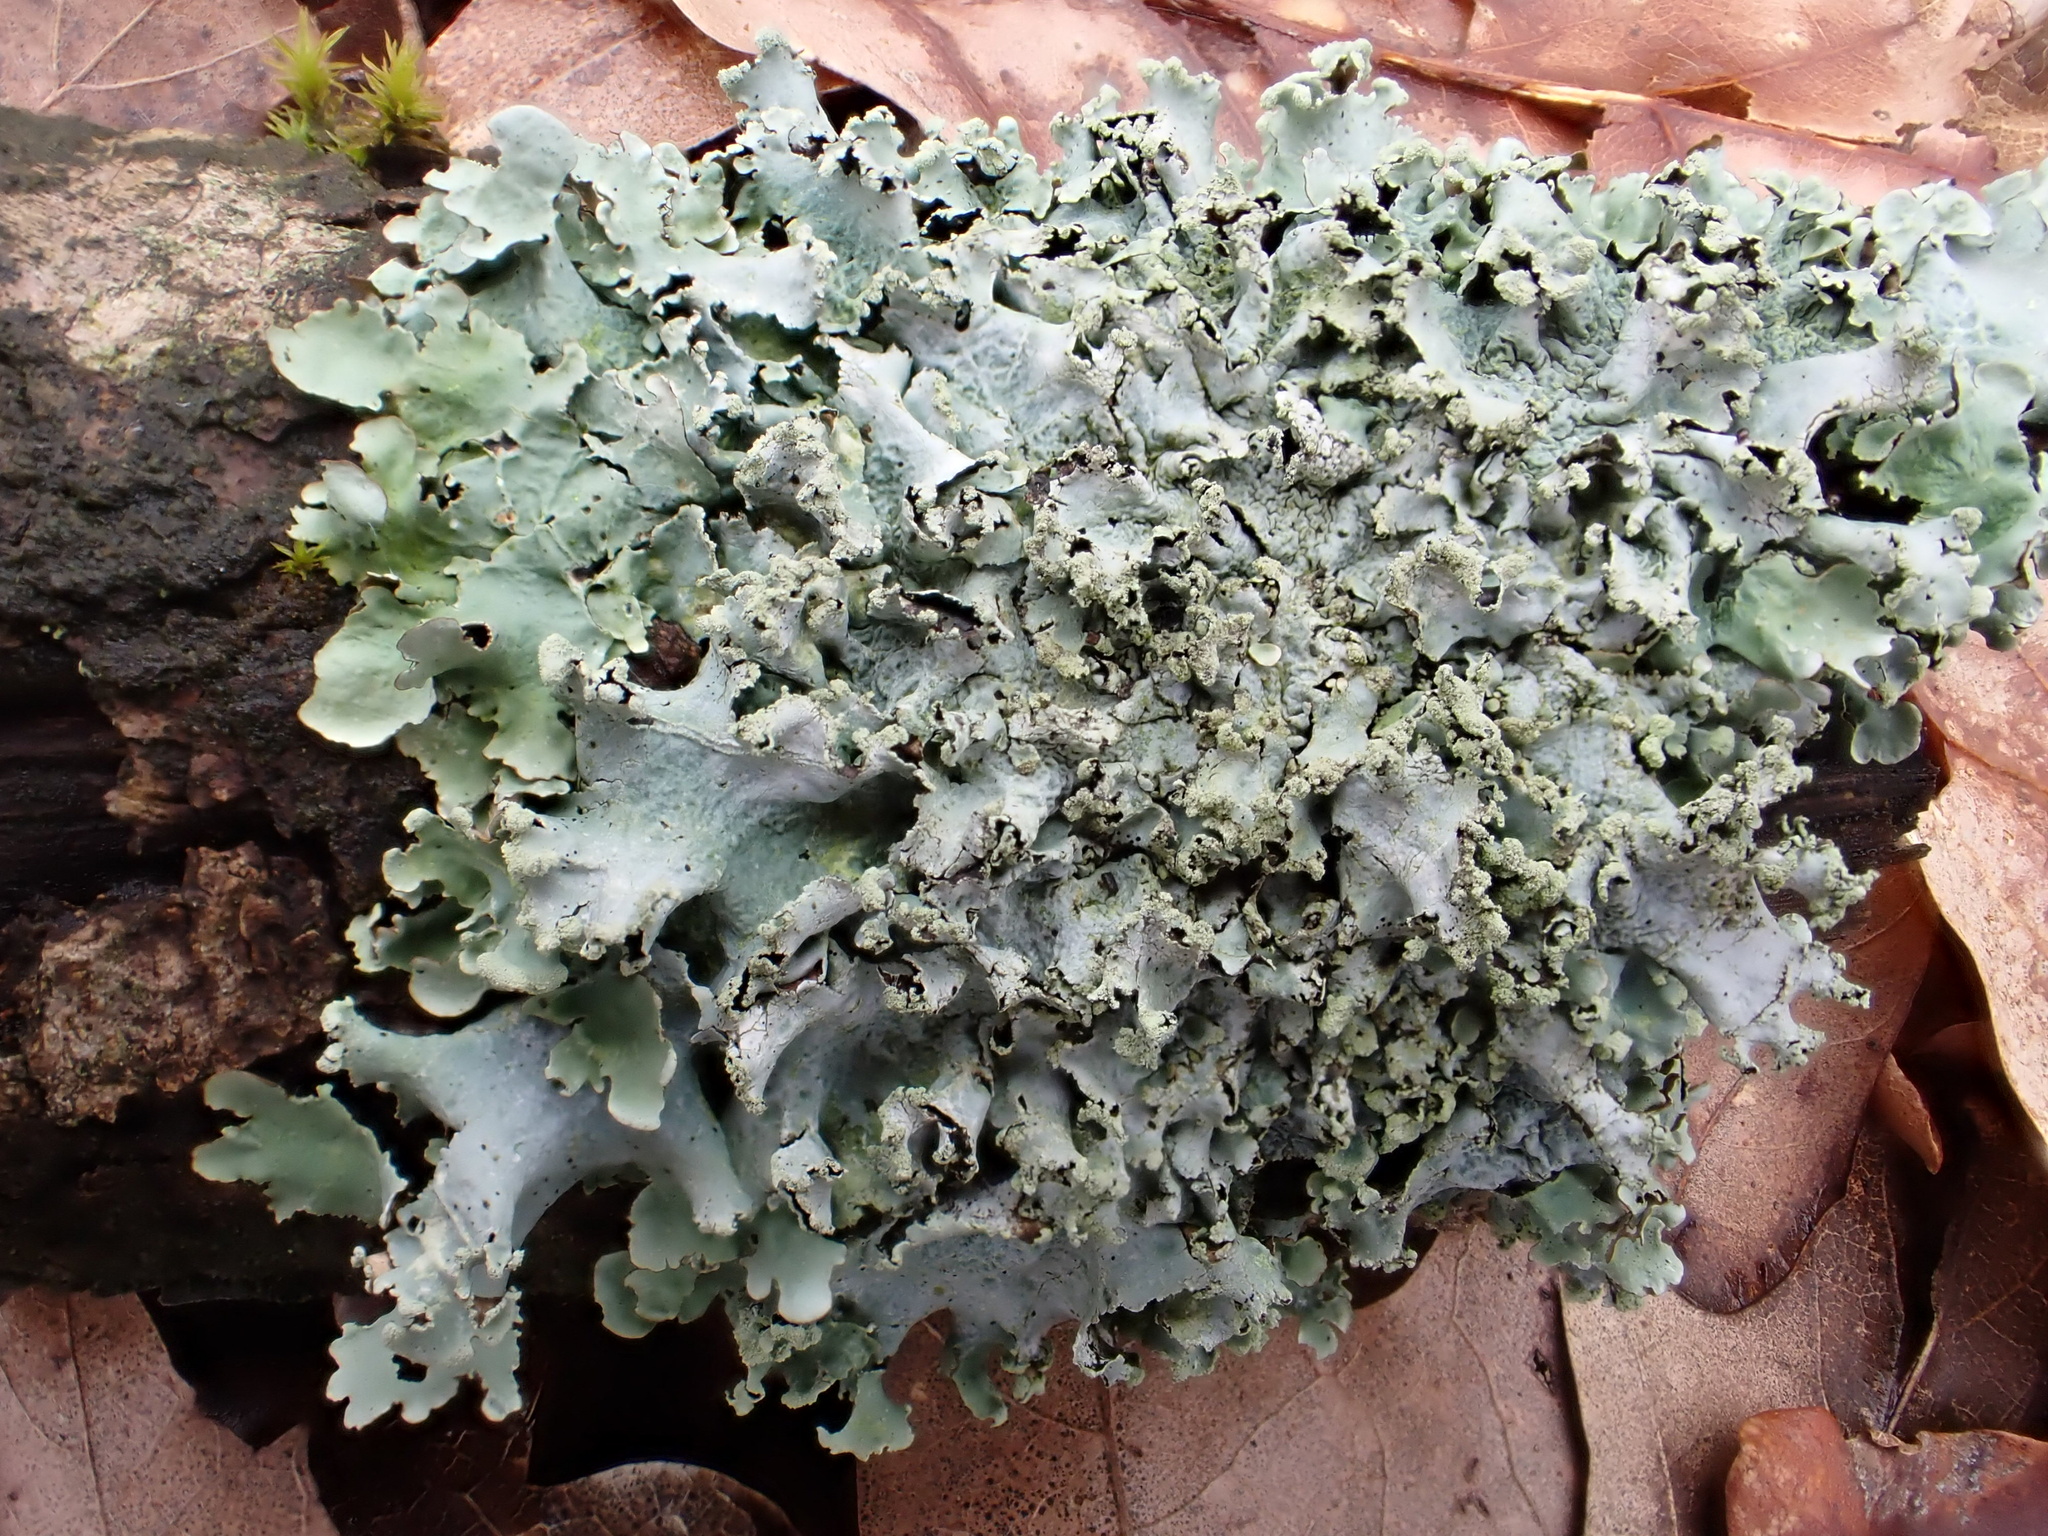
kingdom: Fungi
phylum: Ascomycota
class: Lecanoromycetes
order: Lecanorales
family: Parmeliaceae
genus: Parmotrema
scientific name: Parmotrema perlatum
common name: Black stone flower
